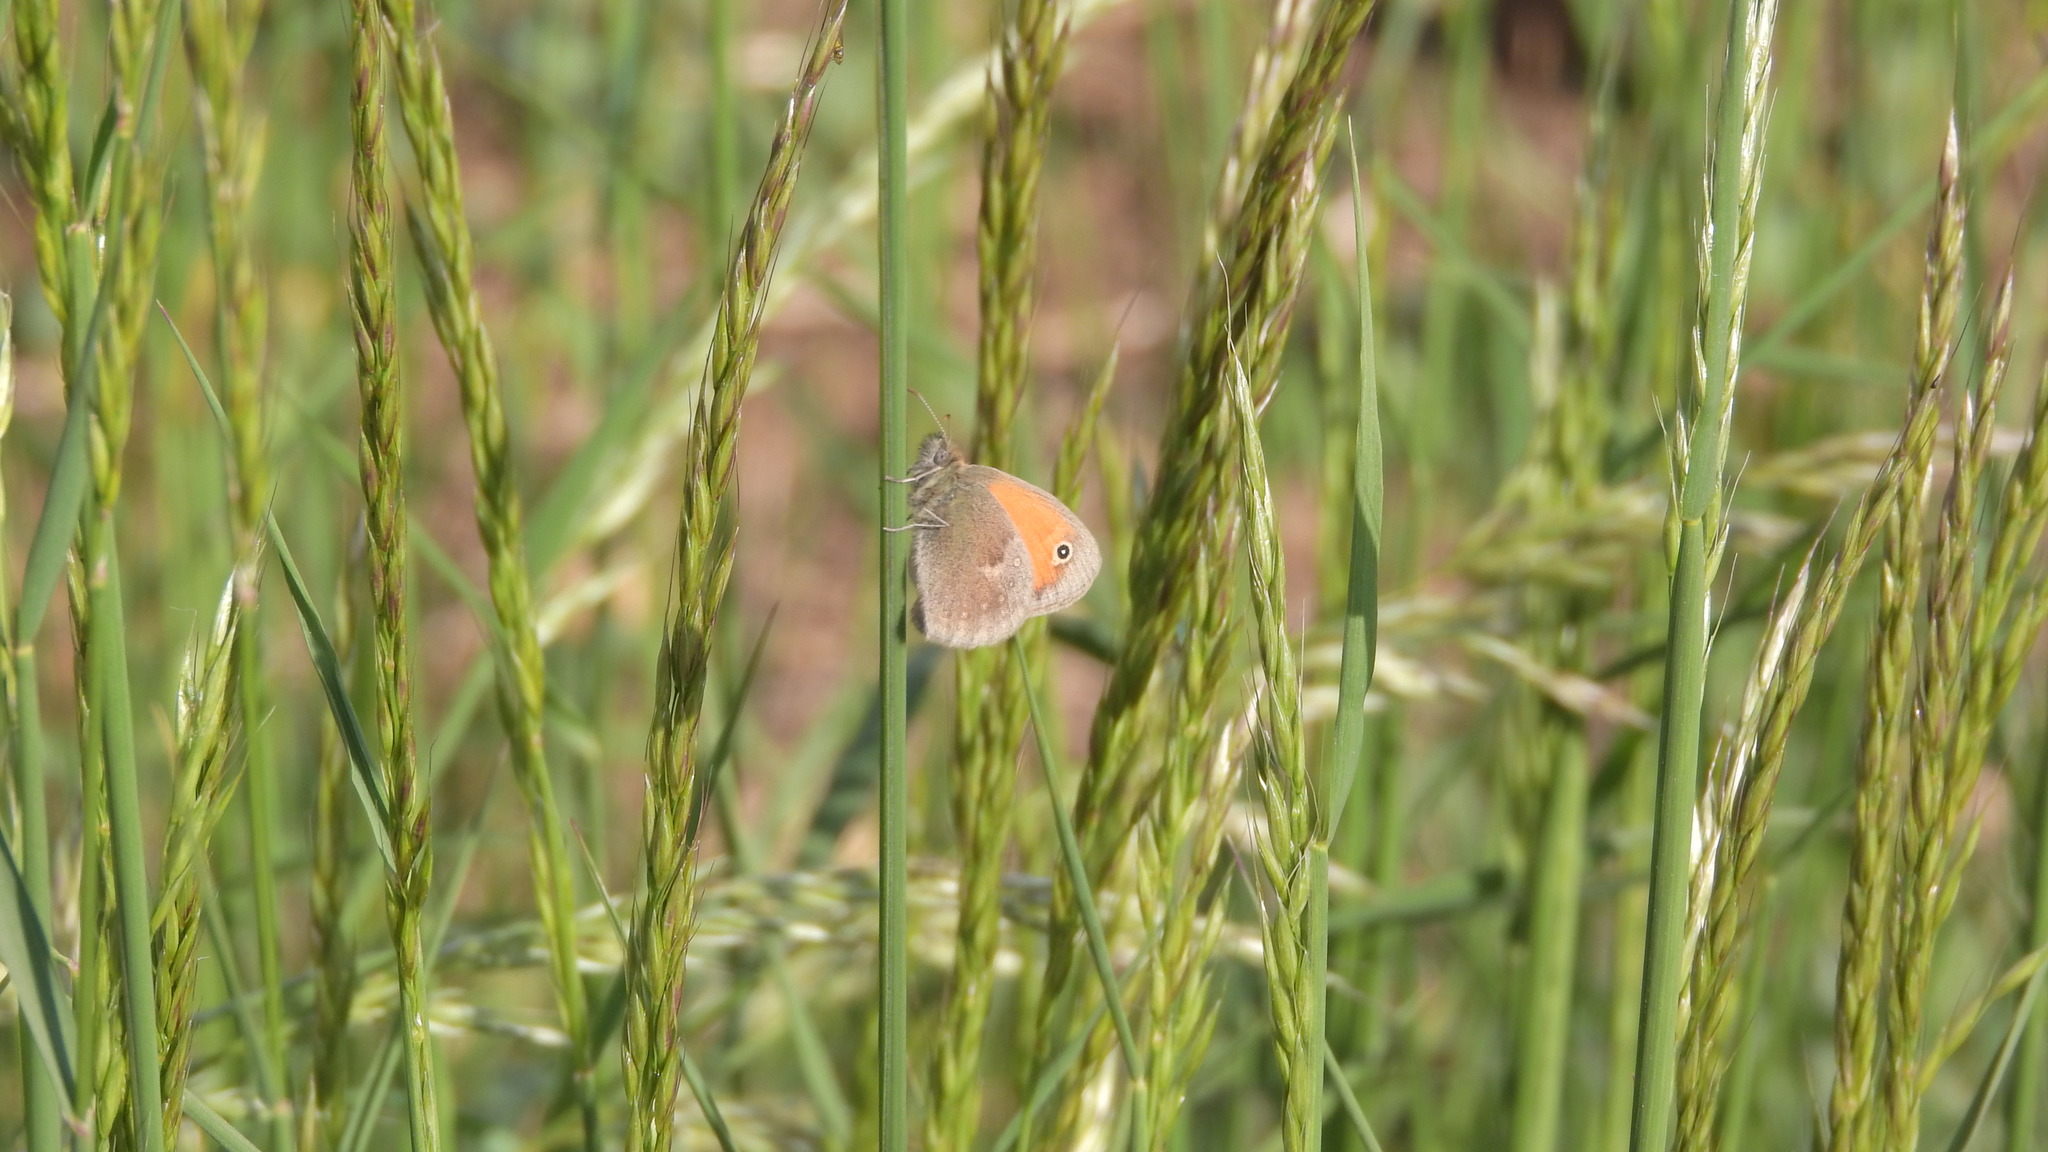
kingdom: Animalia
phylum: Arthropoda
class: Insecta
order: Lepidoptera
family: Nymphalidae
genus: Coenonympha
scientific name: Coenonympha pamphilus
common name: Small heath
